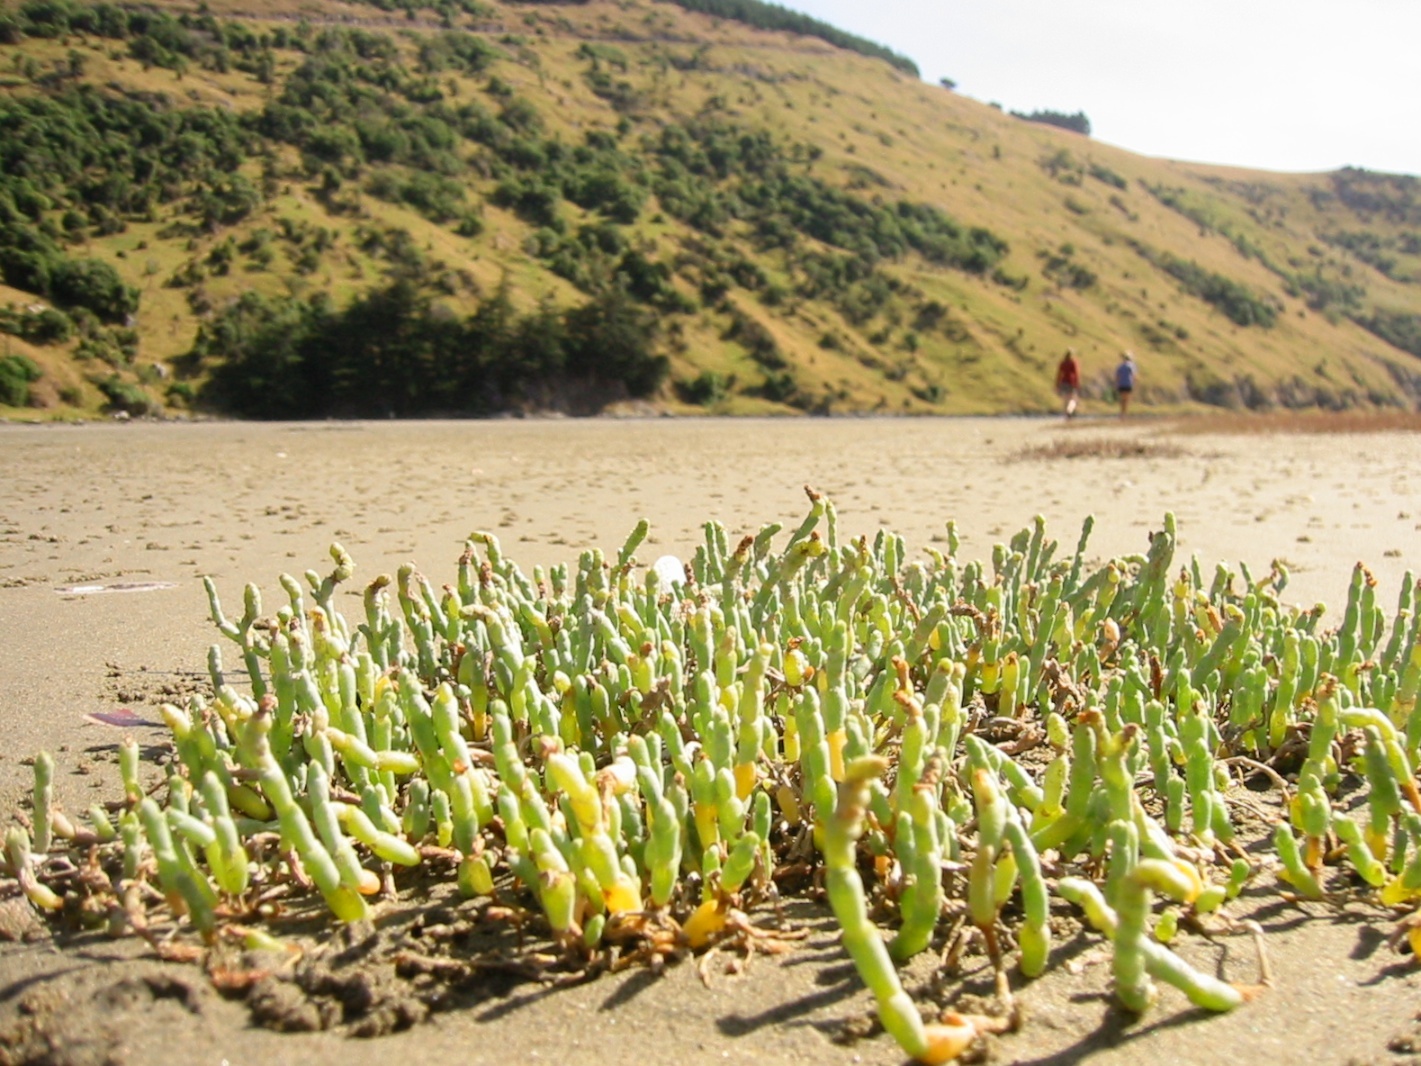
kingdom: Plantae
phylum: Tracheophyta
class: Magnoliopsida
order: Caryophyllales
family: Amaranthaceae
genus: Salicornia
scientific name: Salicornia quinqueflora
